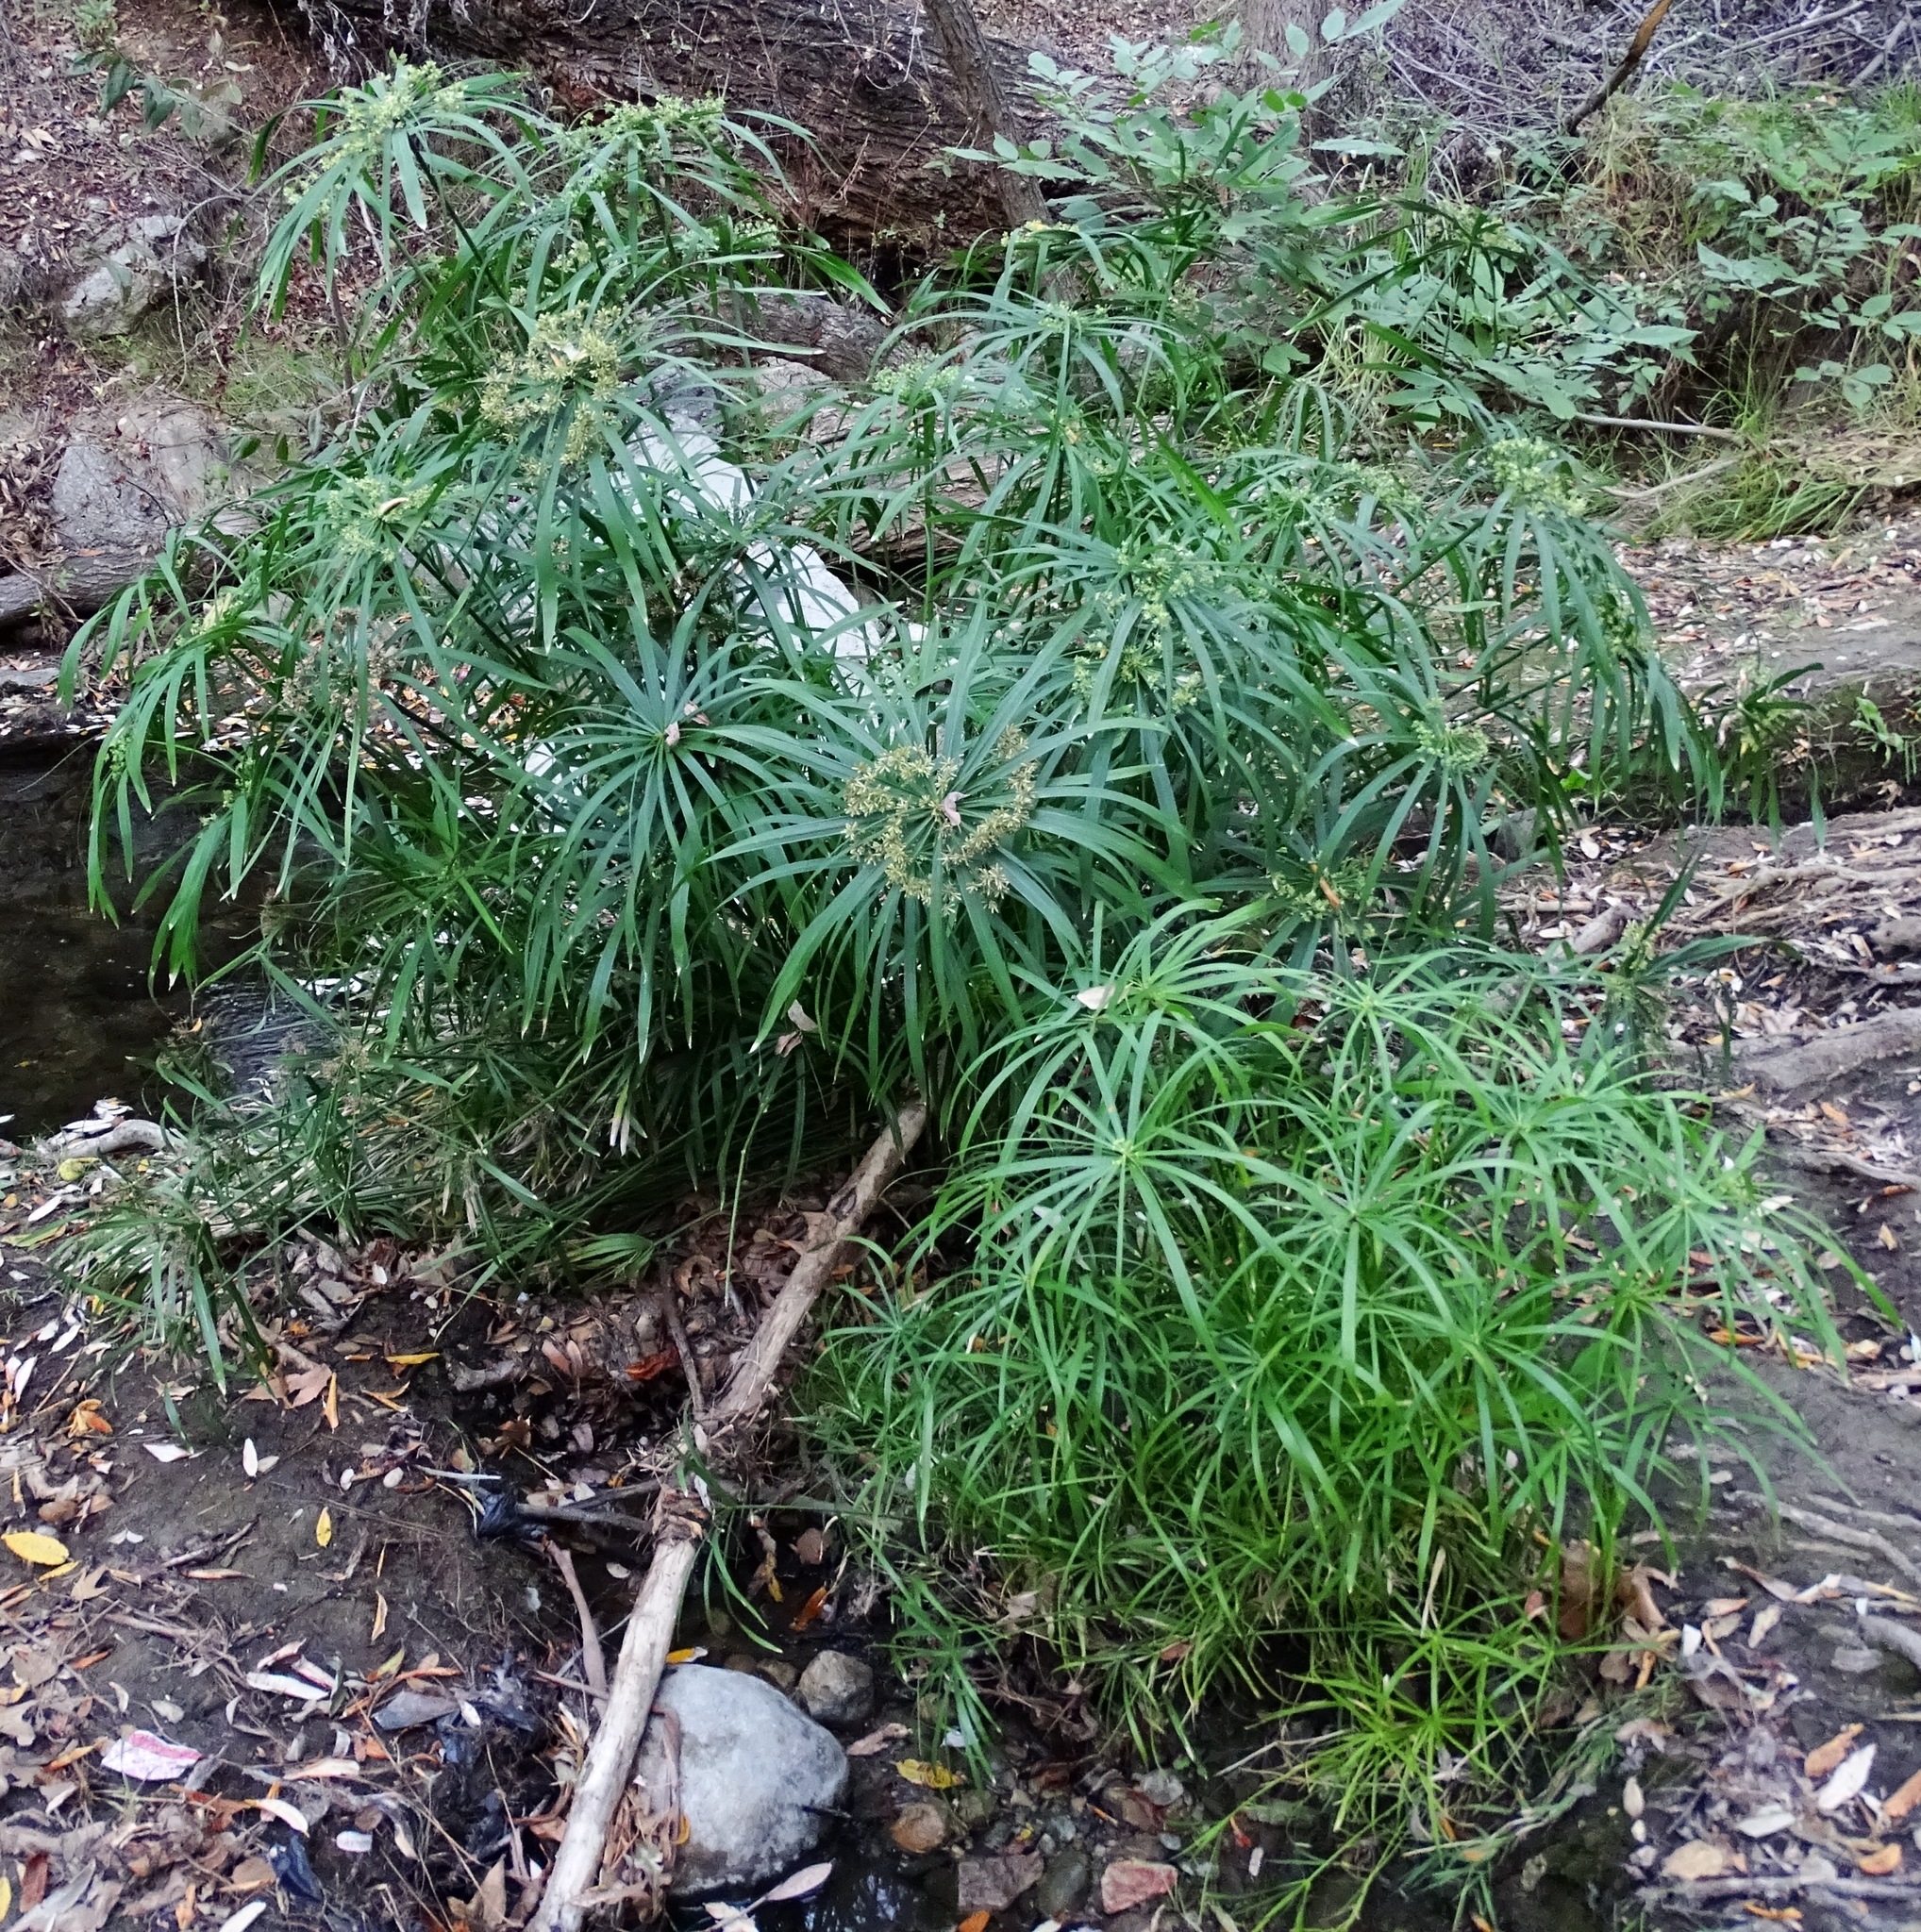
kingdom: Plantae
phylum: Tracheophyta
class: Liliopsida
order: Poales
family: Cyperaceae
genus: Cyperus
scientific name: Cyperus alternifolius
